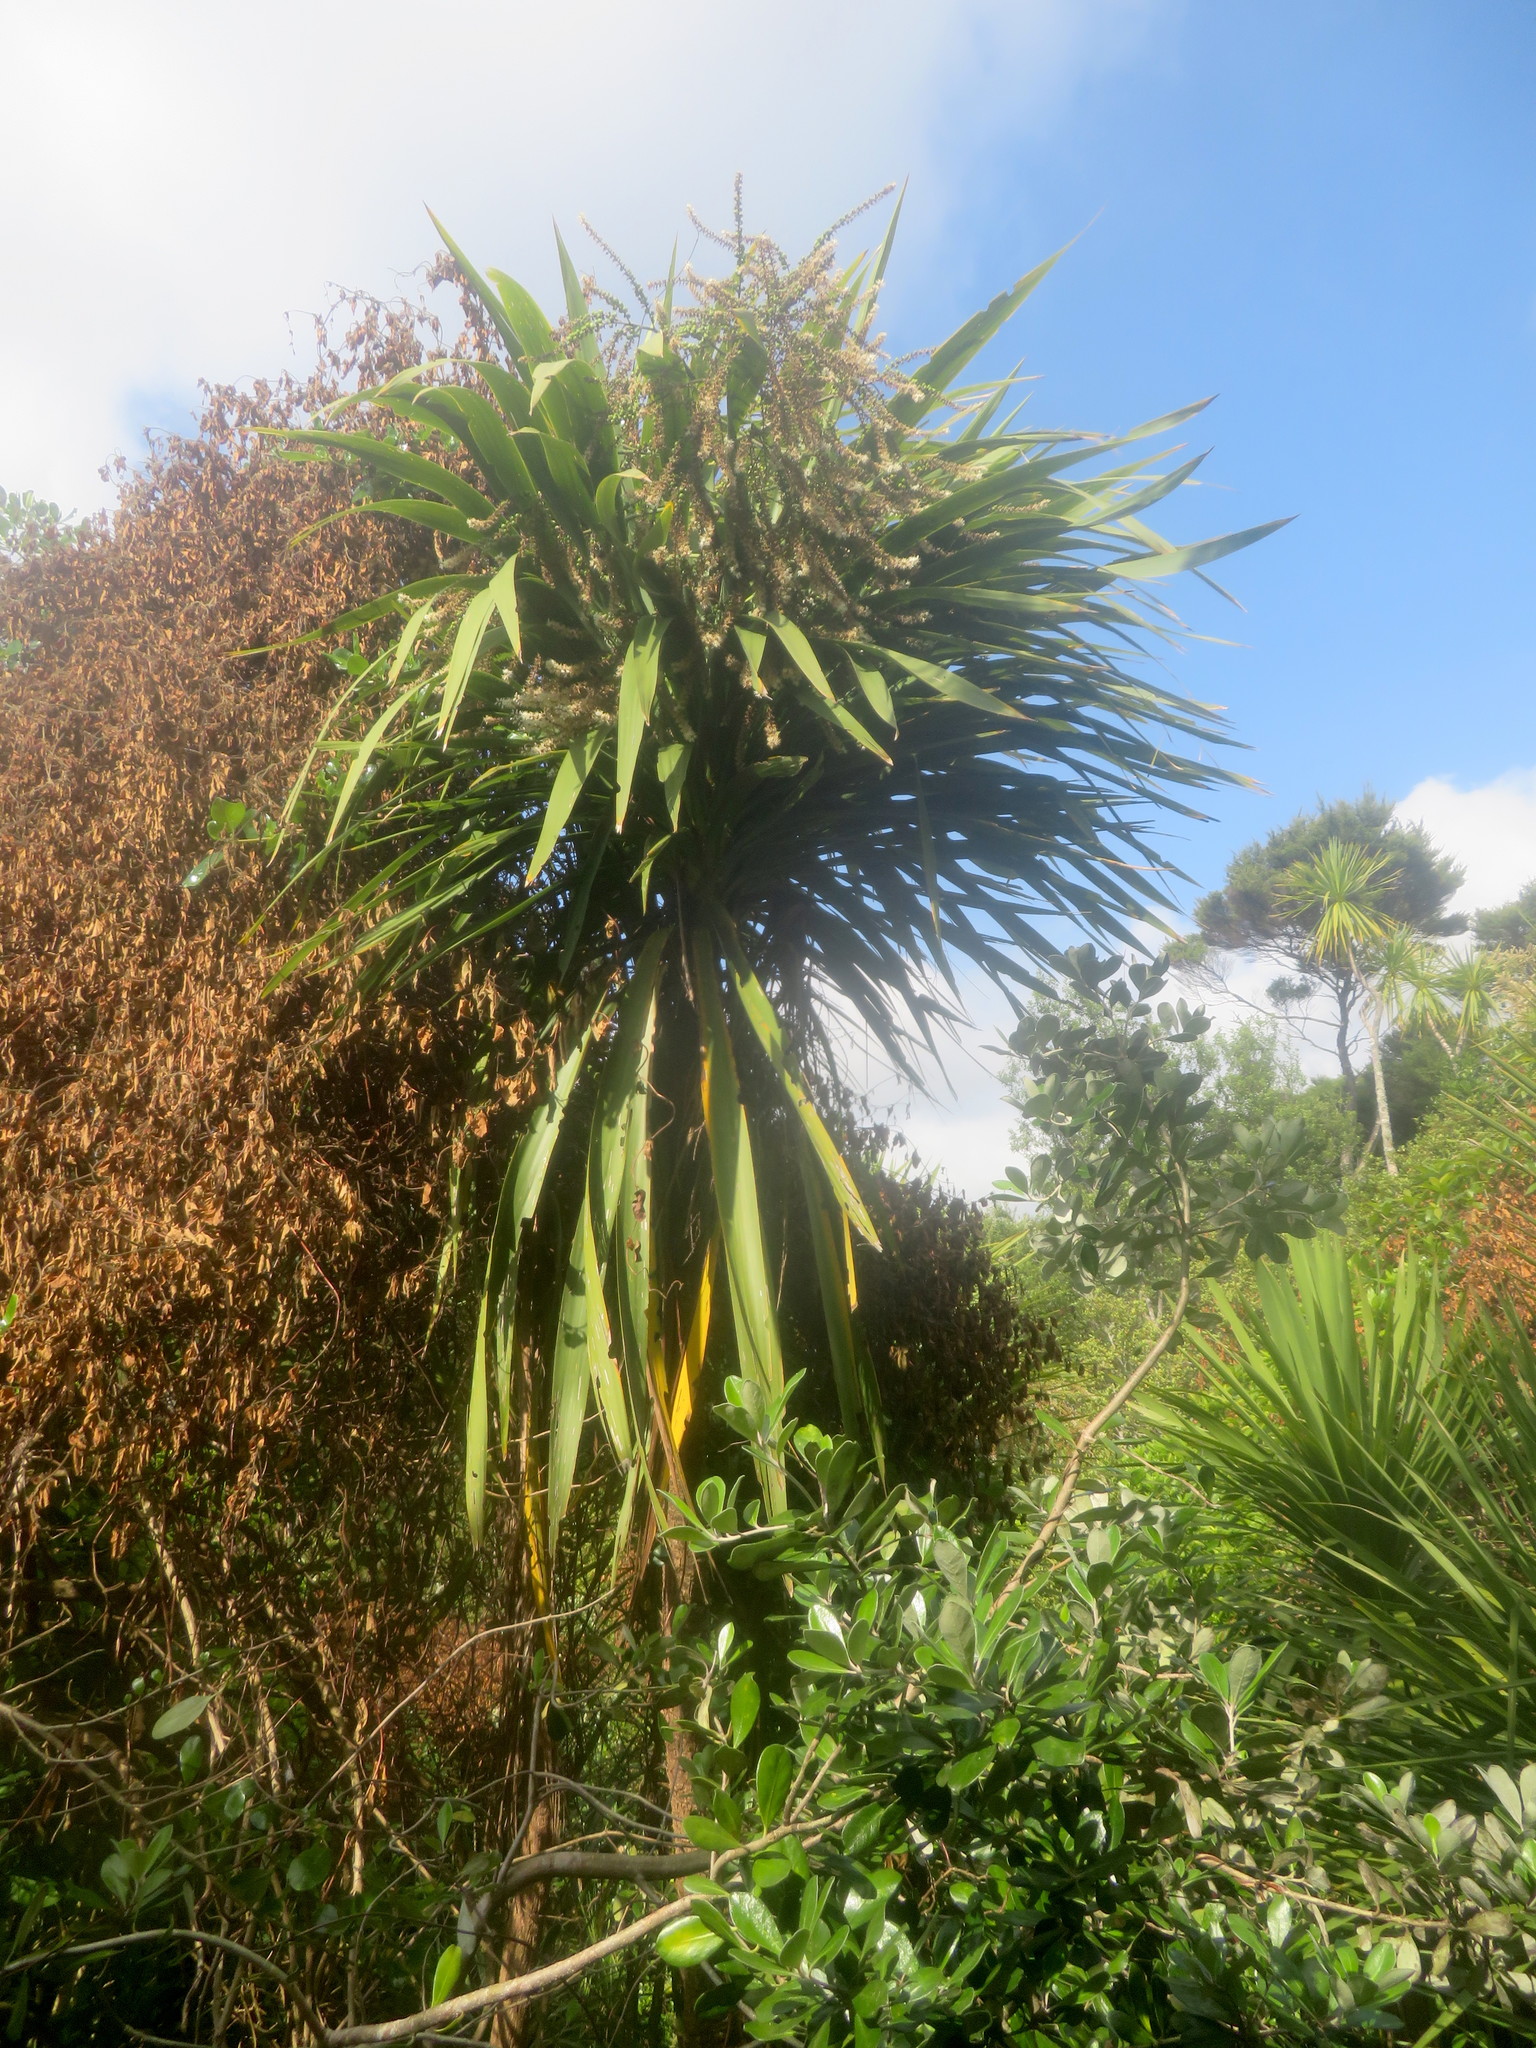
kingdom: Plantae
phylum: Tracheophyta
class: Liliopsida
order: Asparagales
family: Asparagaceae
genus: Cordyline
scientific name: Cordyline australis
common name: Cabbage-palm
